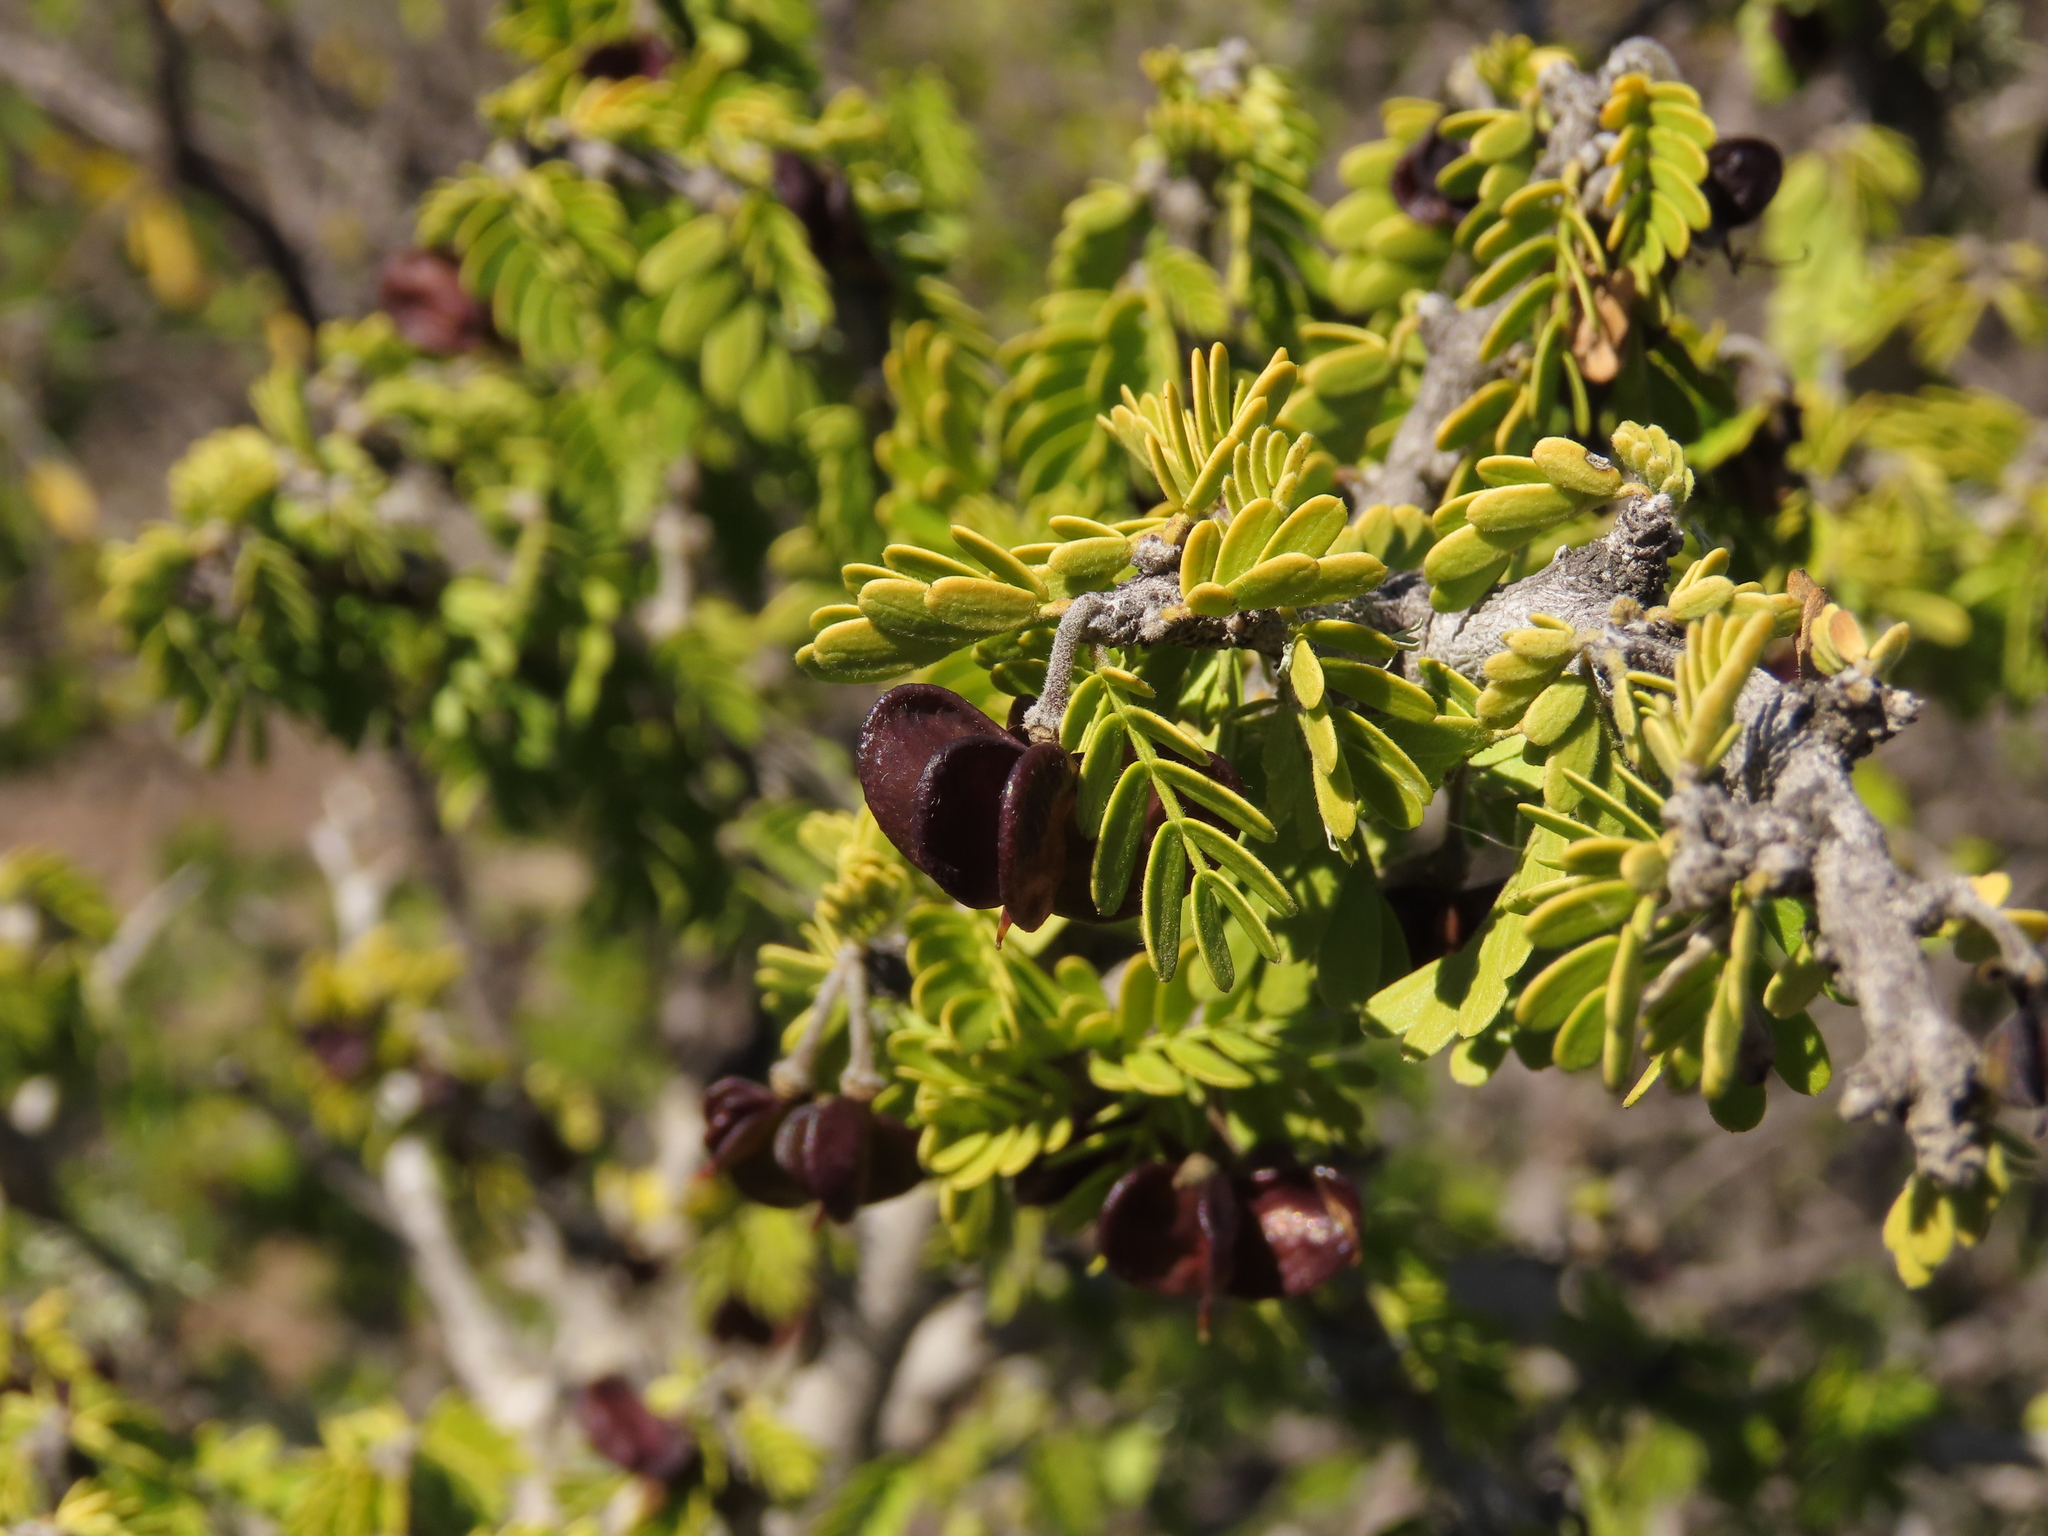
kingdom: Plantae
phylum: Tracheophyta
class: Magnoliopsida
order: Zygophyllales
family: Zygophyllaceae
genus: Porlieria
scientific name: Porlieria chilensis
